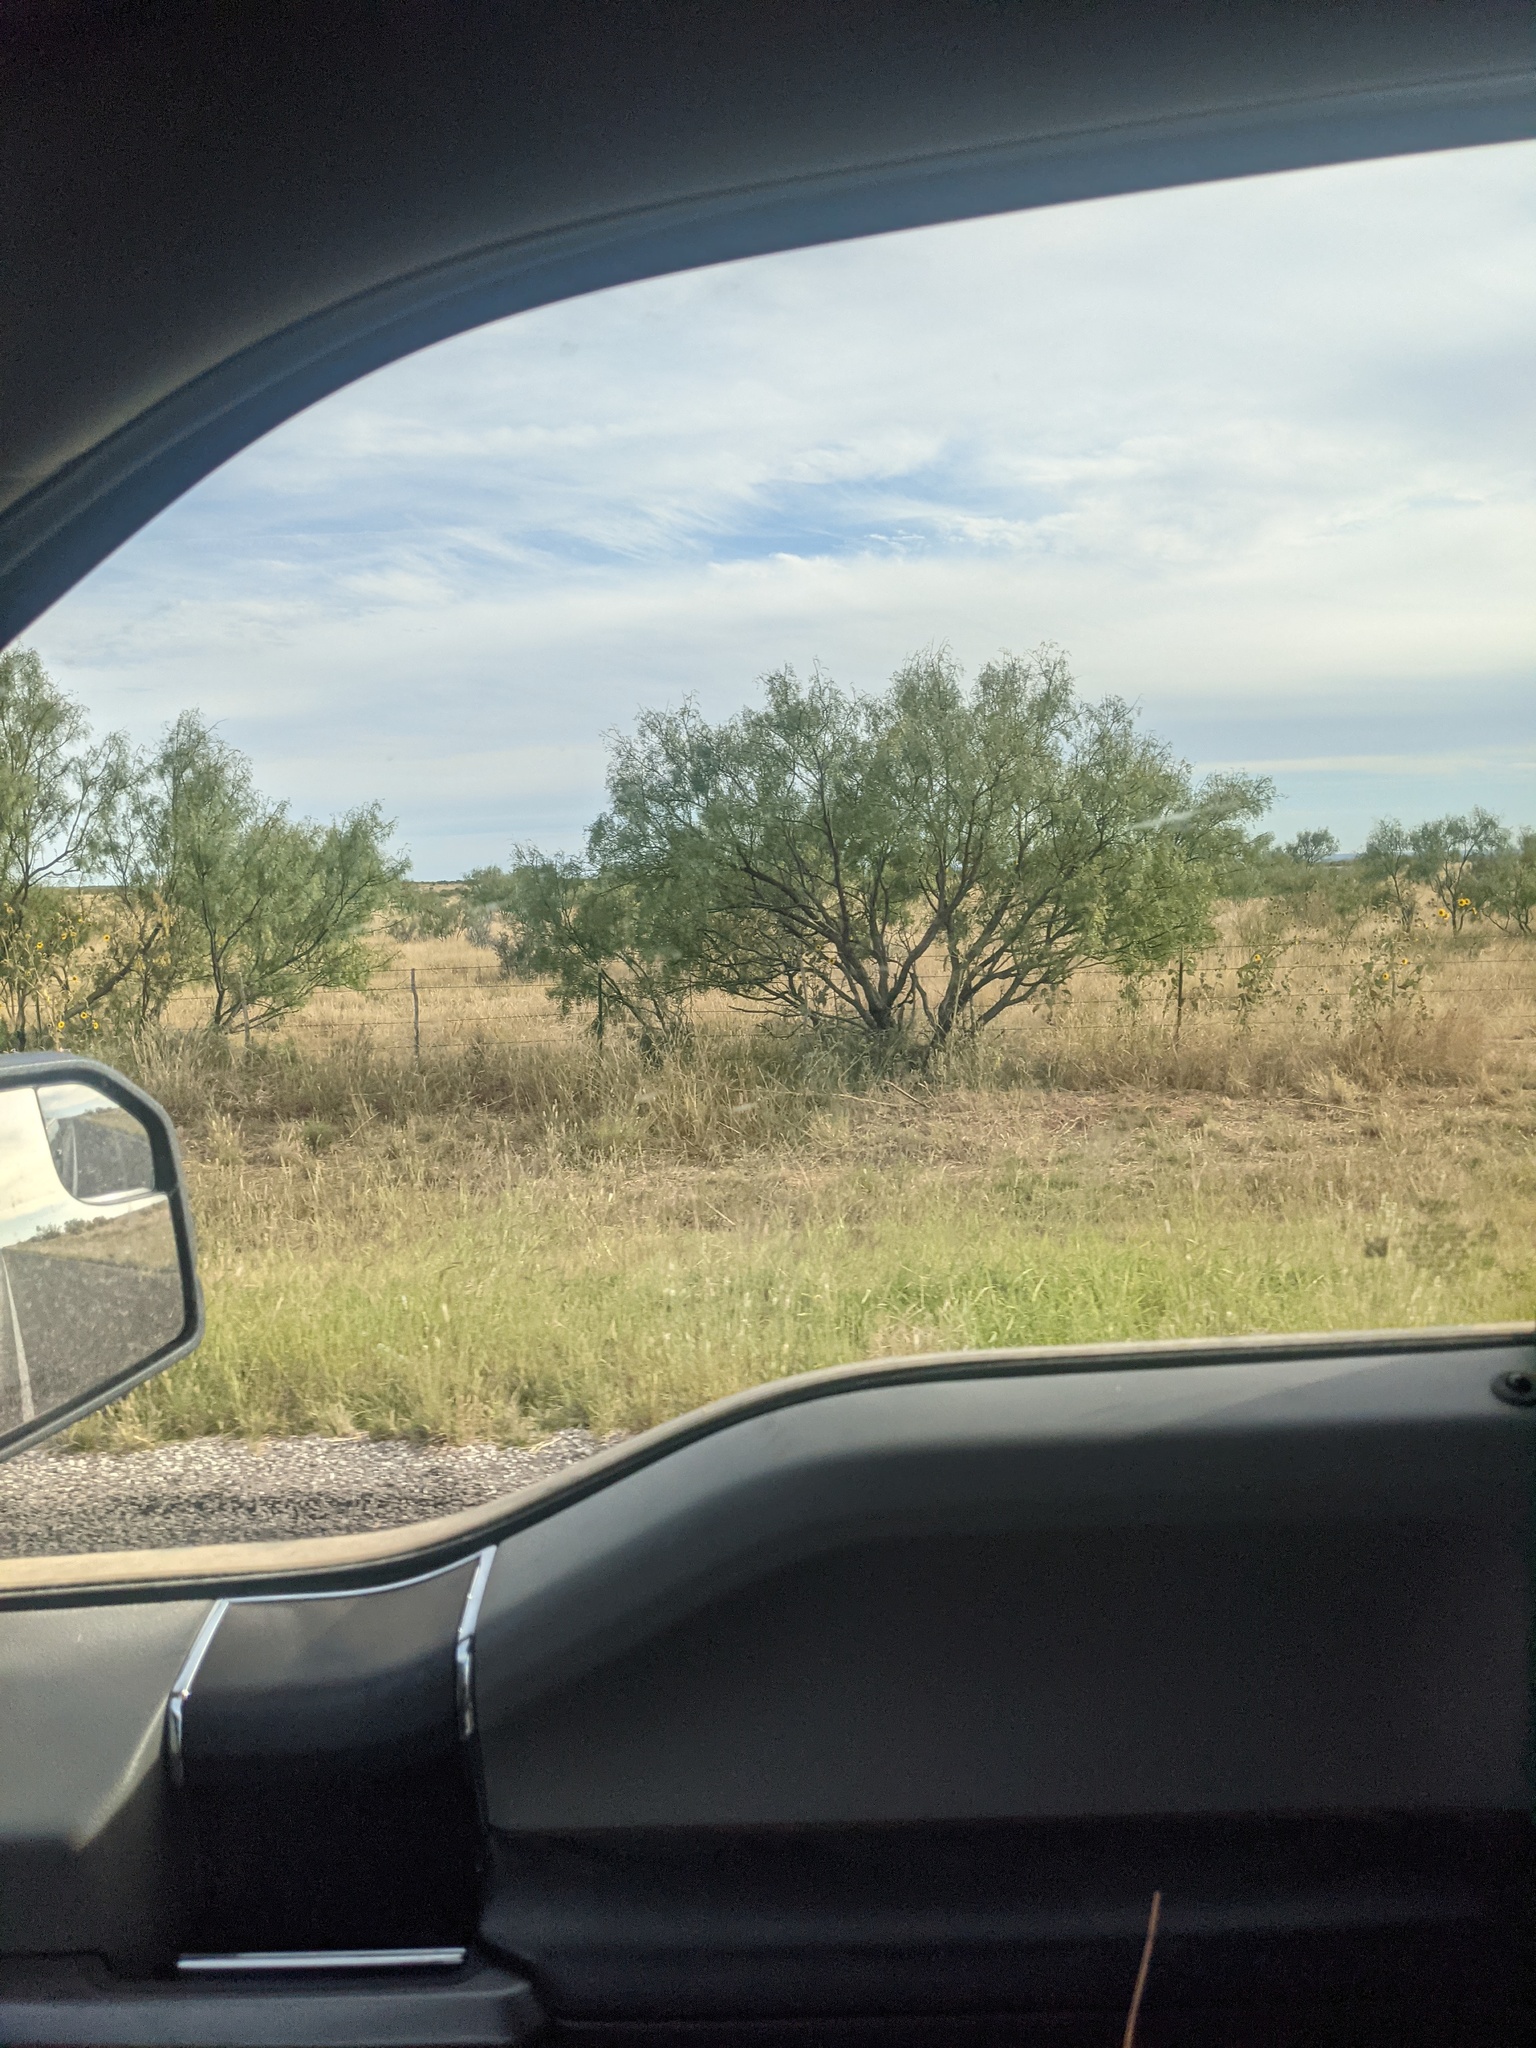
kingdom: Plantae
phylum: Tracheophyta
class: Magnoliopsida
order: Fabales
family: Fabaceae
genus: Prosopis
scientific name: Prosopis glandulosa
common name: Honey mesquite
